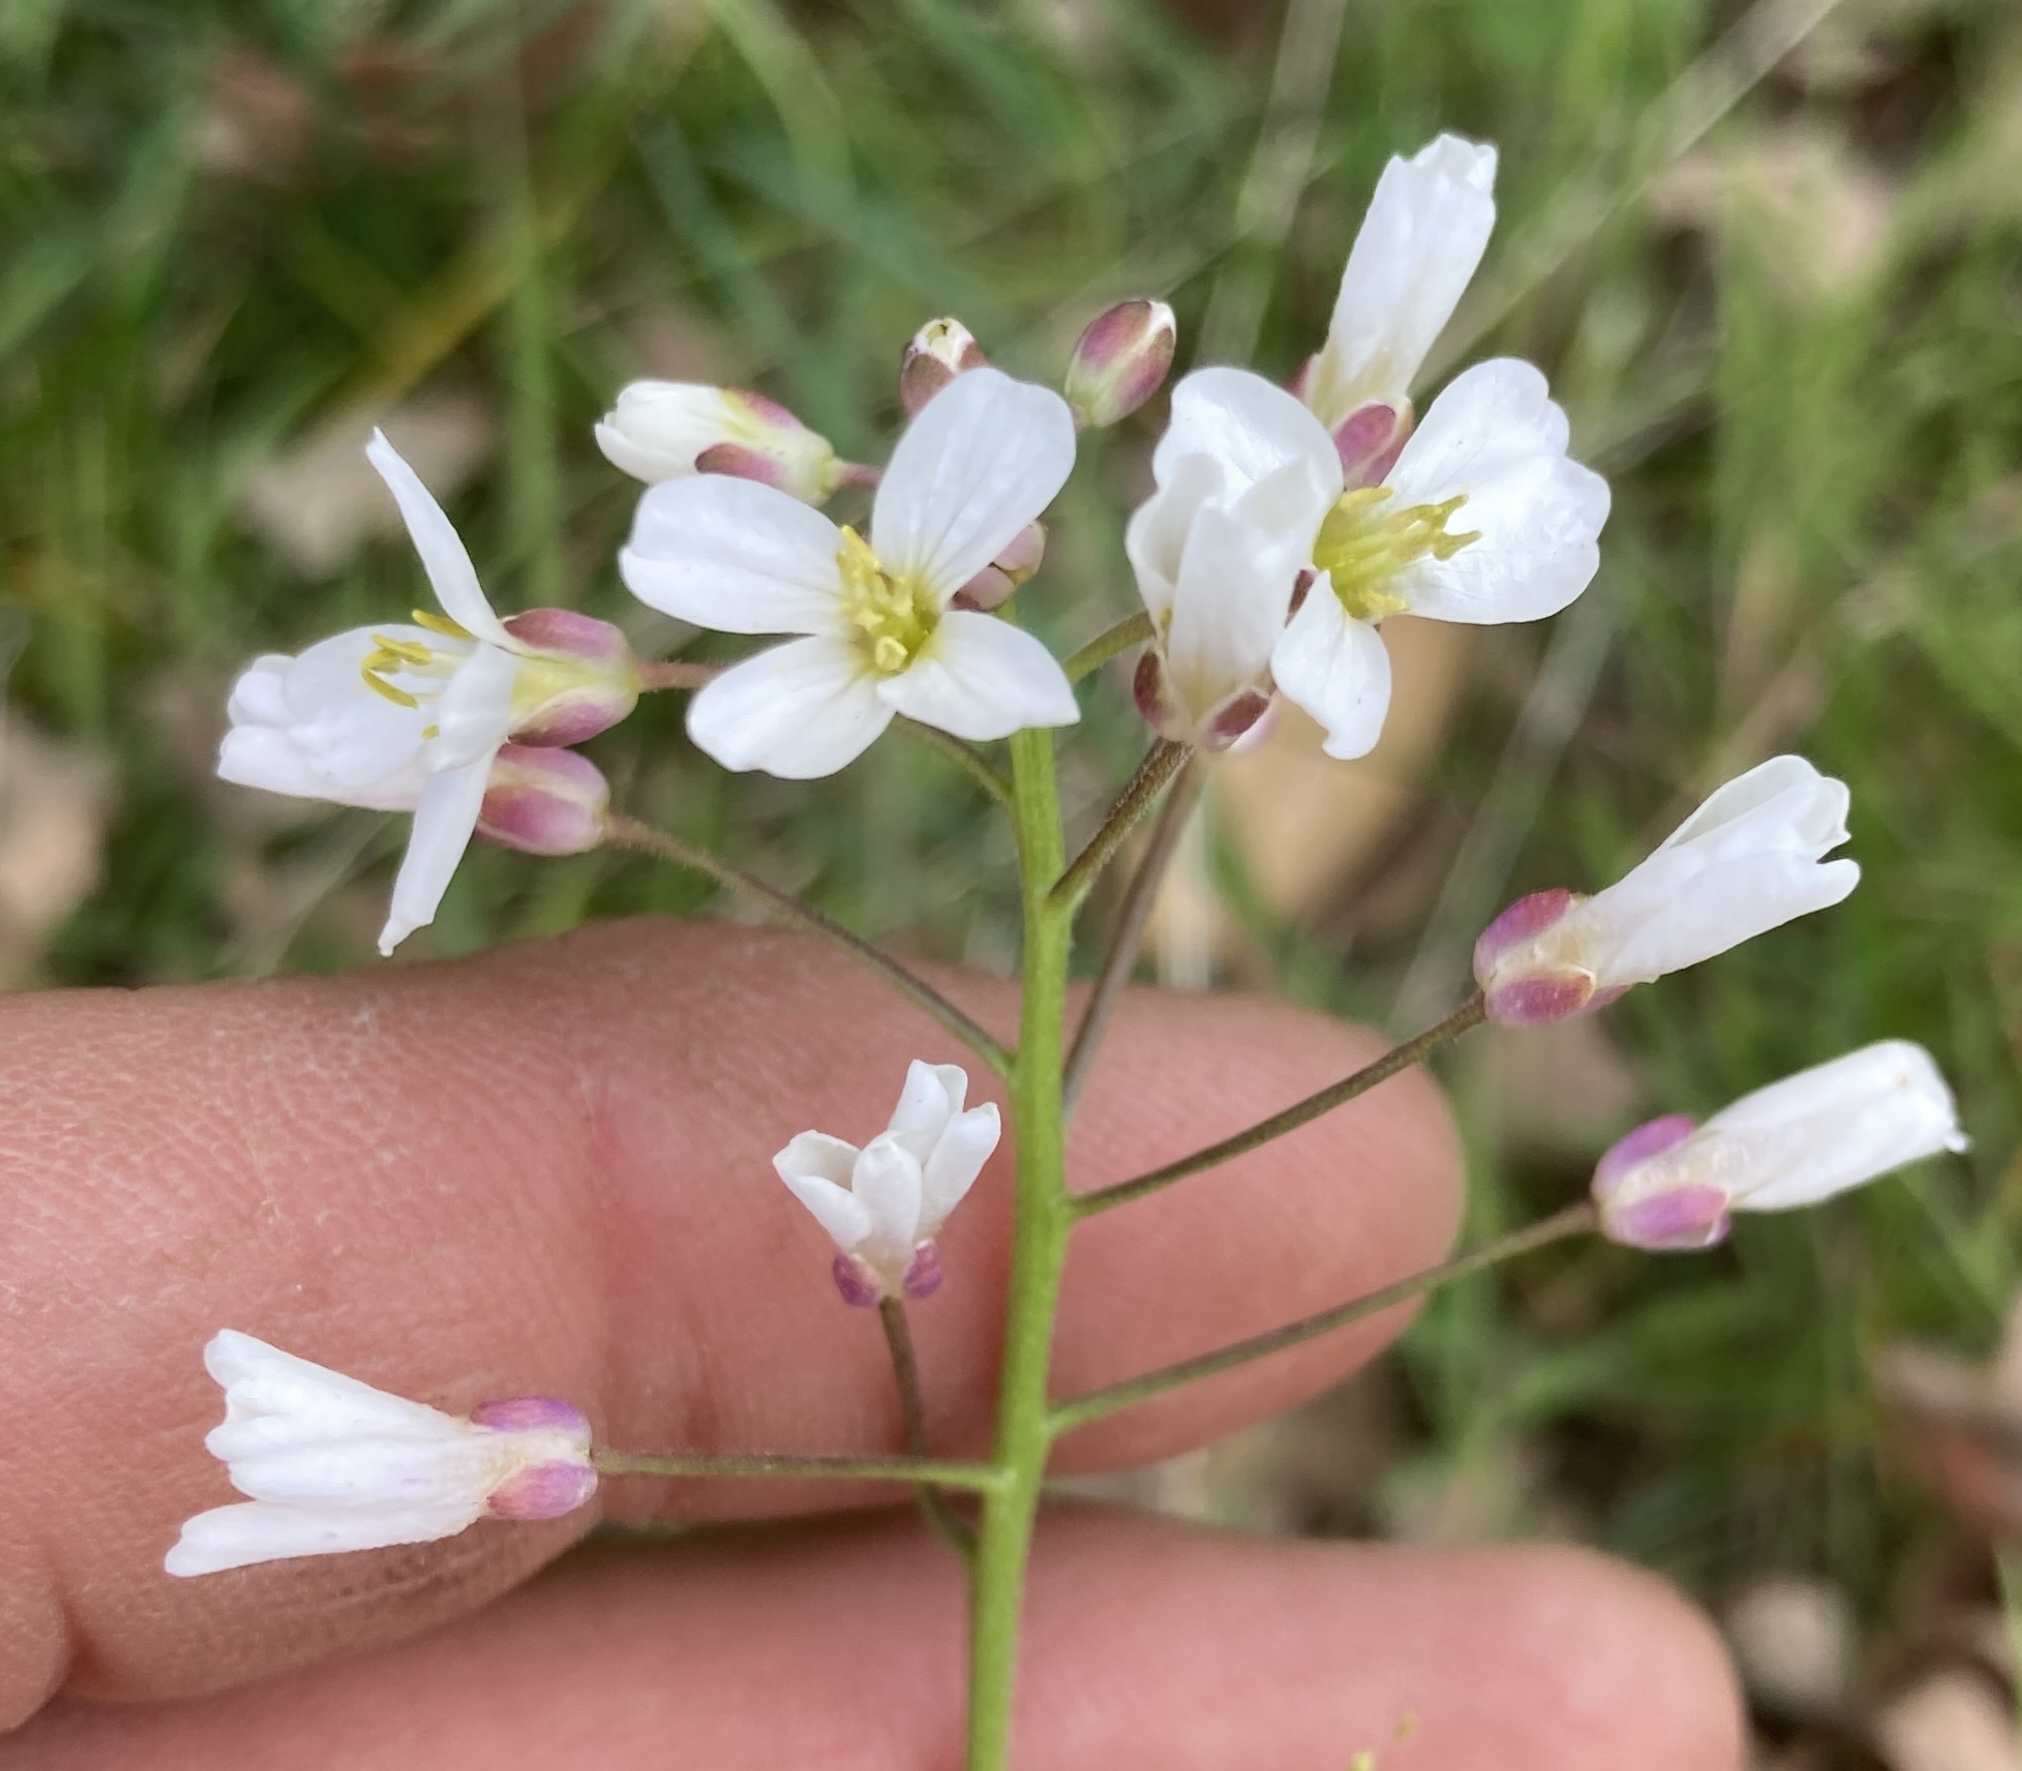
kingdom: Plantae
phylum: Tracheophyta
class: Magnoliopsida
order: Brassicales
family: Brassicaceae
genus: Cardamine
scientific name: Cardamine californica
